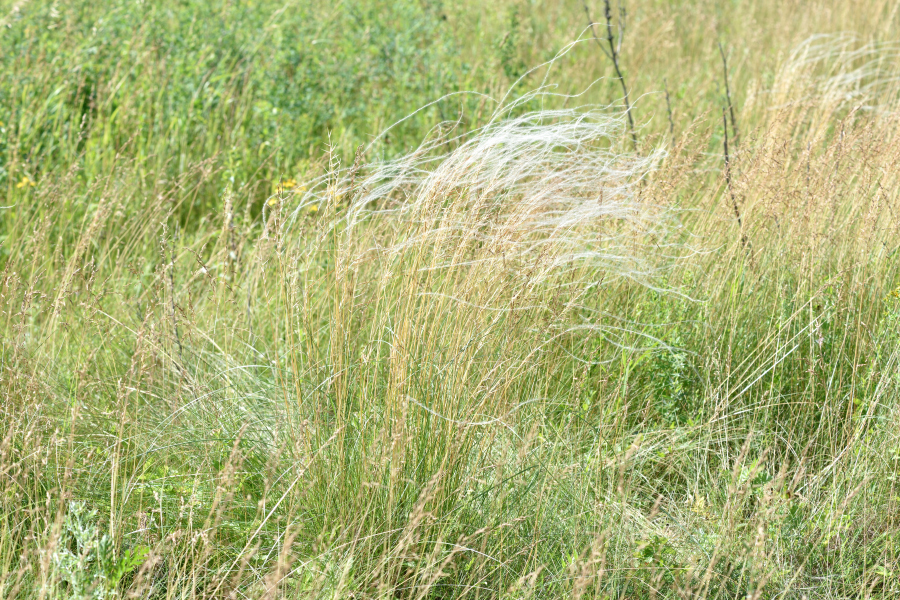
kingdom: Plantae
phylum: Tracheophyta
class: Liliopsida
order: Poales
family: Poaceae
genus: Stipa
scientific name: Stipa pennata
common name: European feather grass
